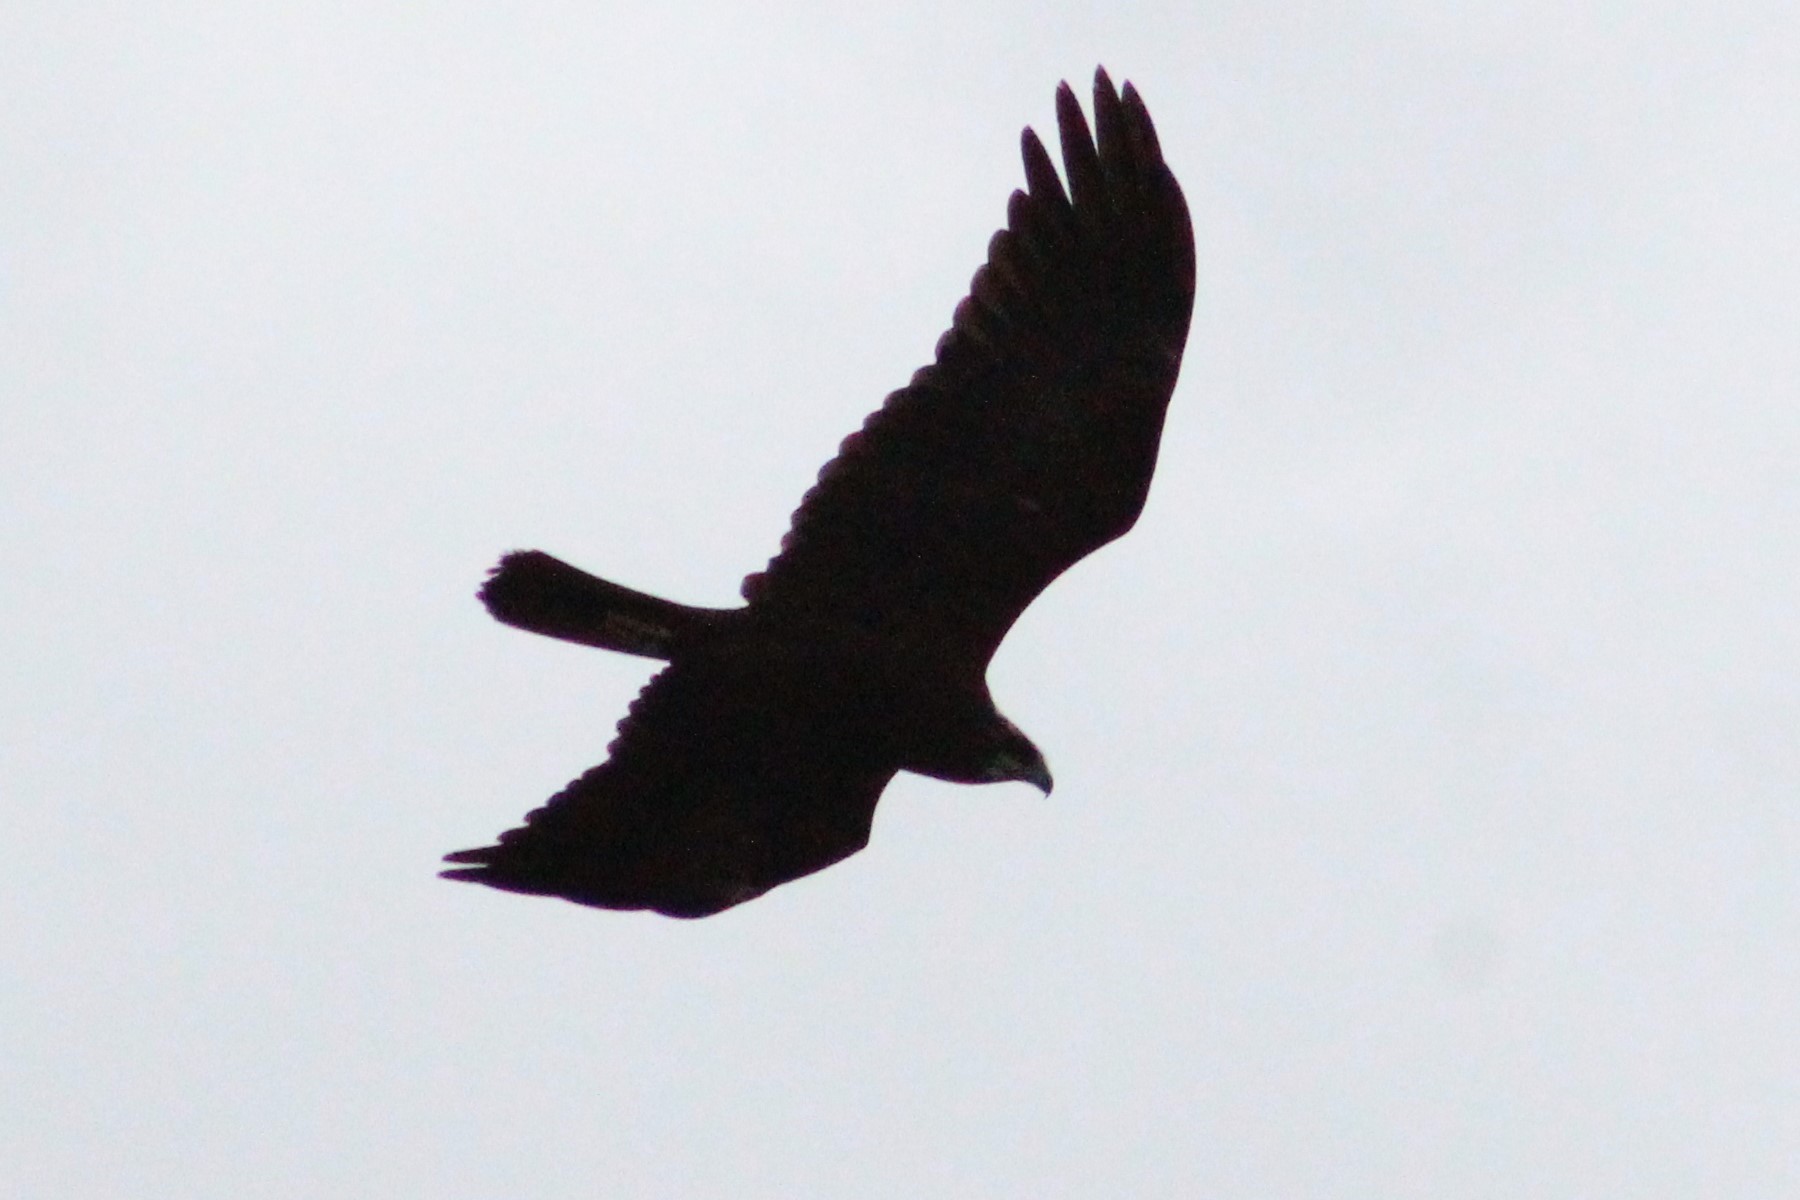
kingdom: Animalia
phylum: Chordata
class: Aves
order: Accipitriformes
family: Accipitridae
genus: Circus
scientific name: Circus aeruginosus
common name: Western marsh harrier
